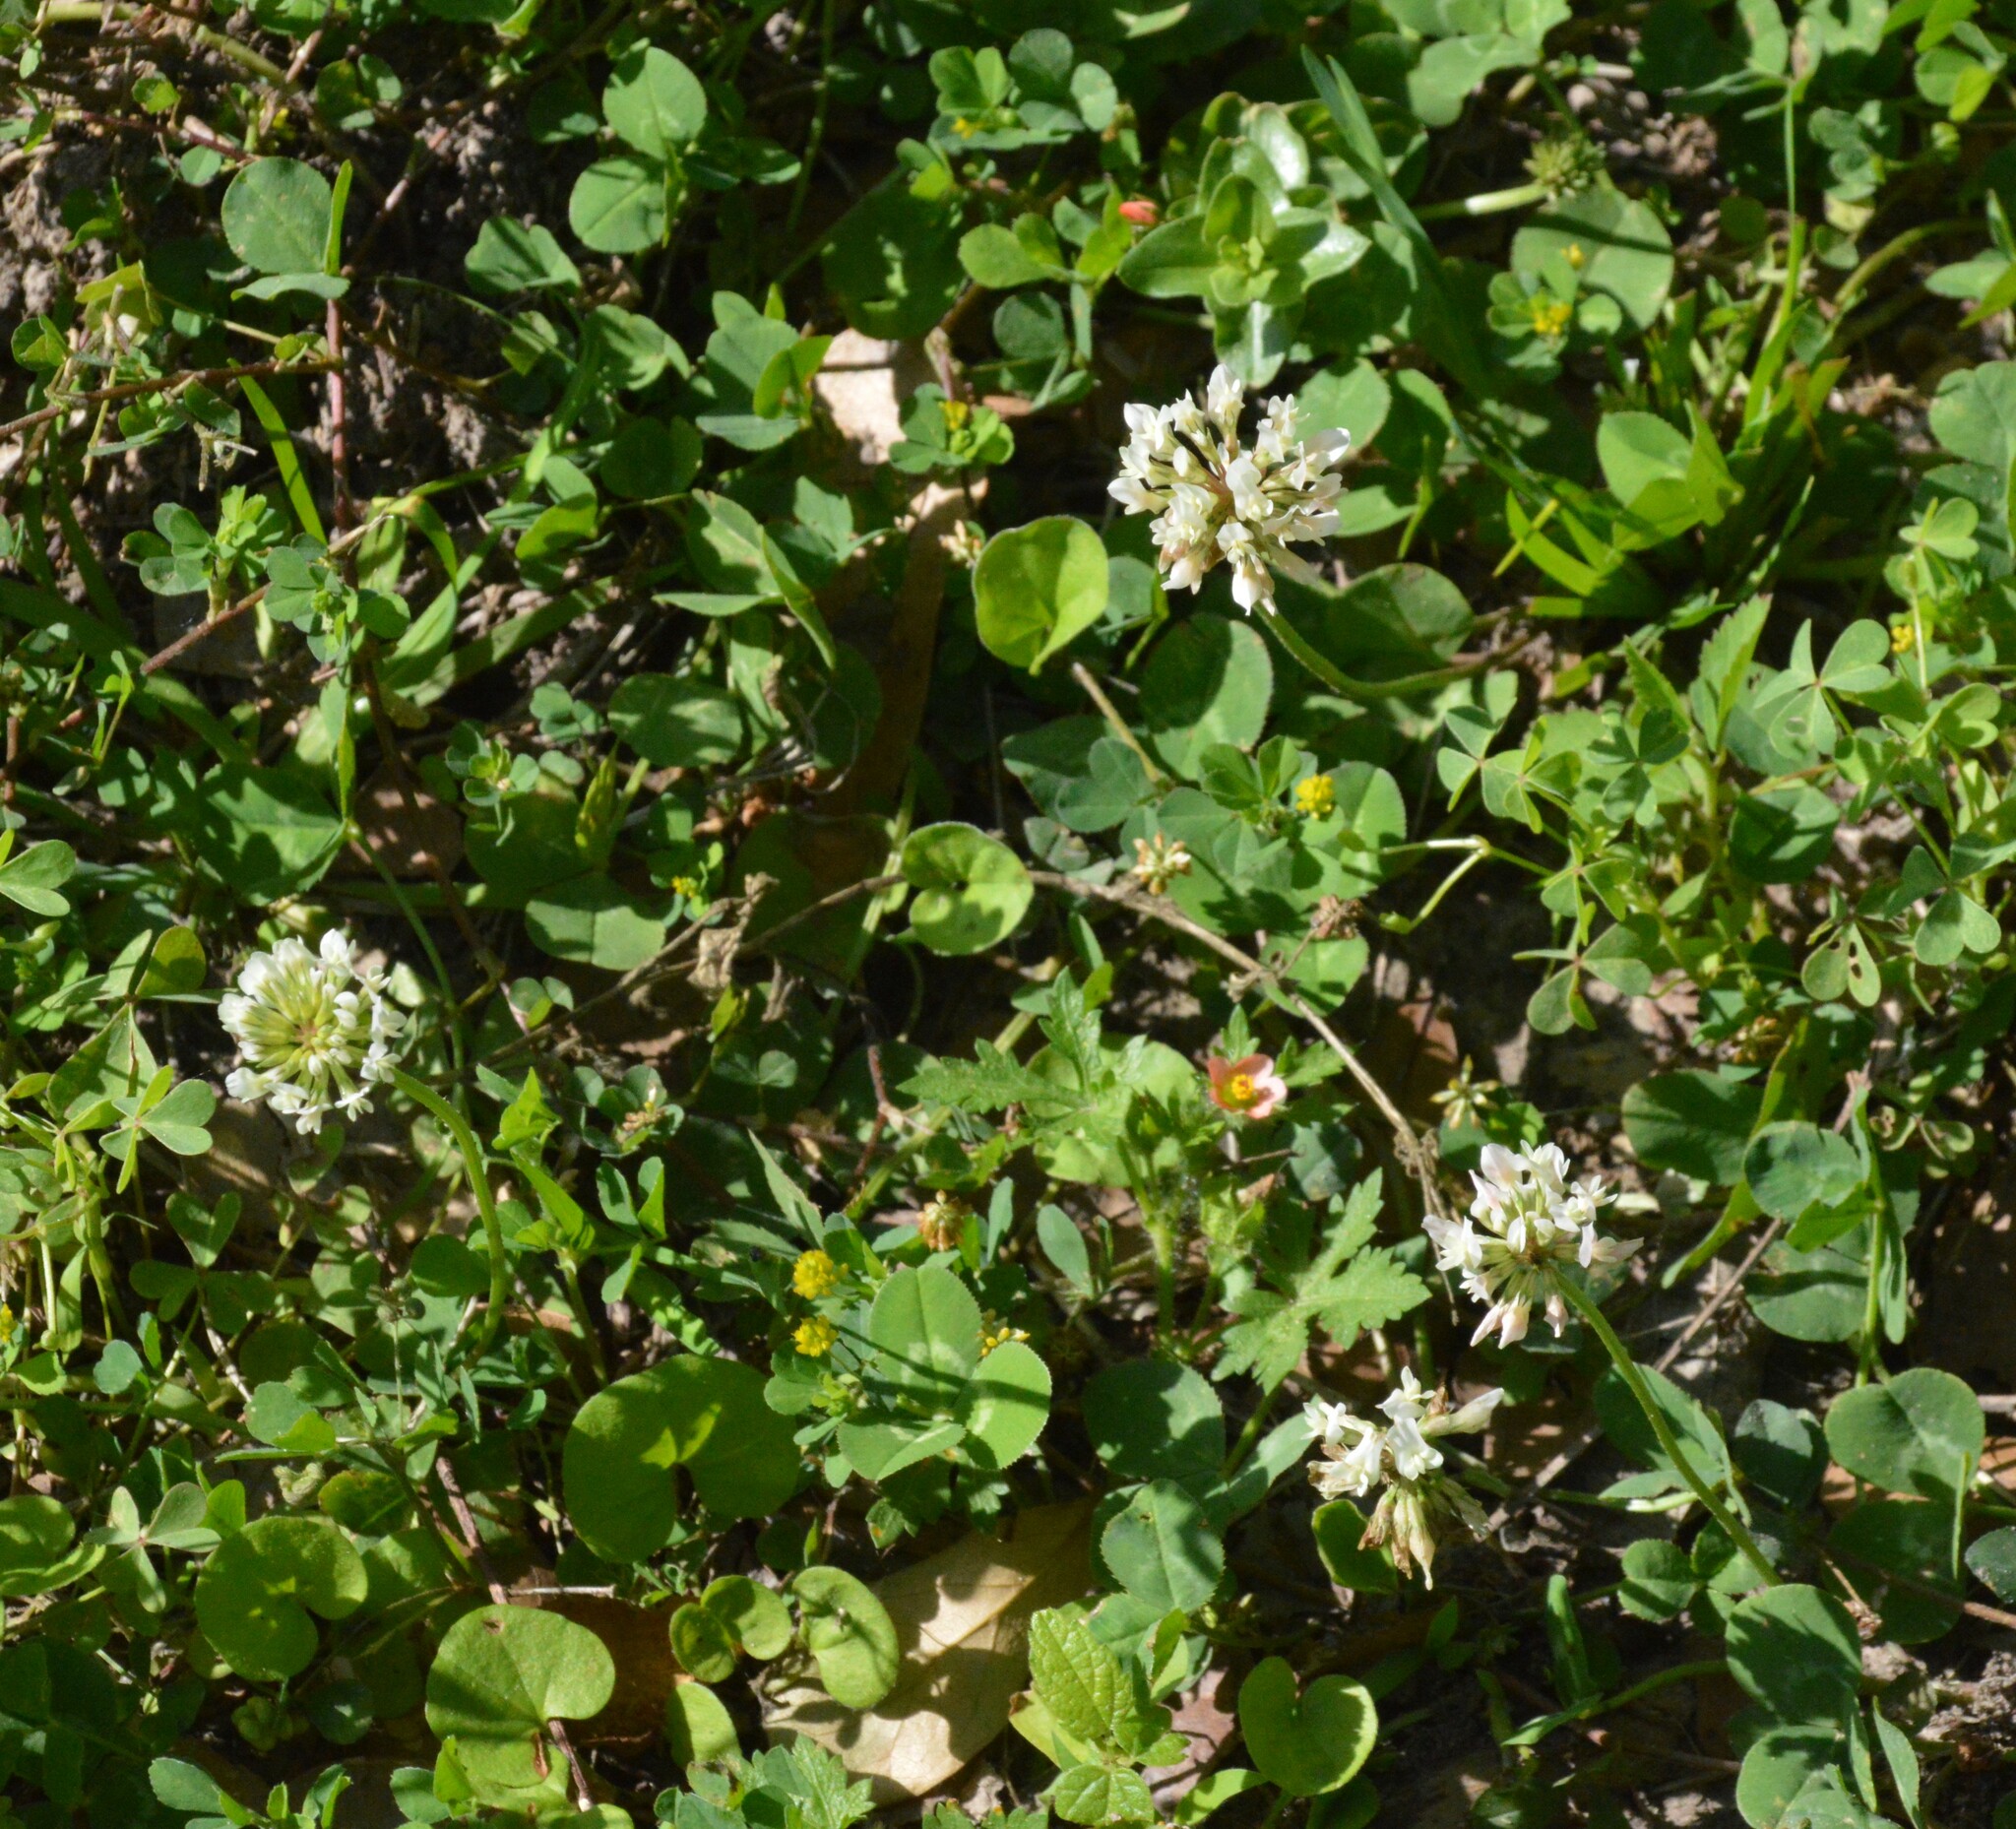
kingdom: Plantae
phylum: Tracheophyta
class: Magnoliopsida
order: Fabales
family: Fabaceae
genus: Trifolium
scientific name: Trifolium repens
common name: White clover
